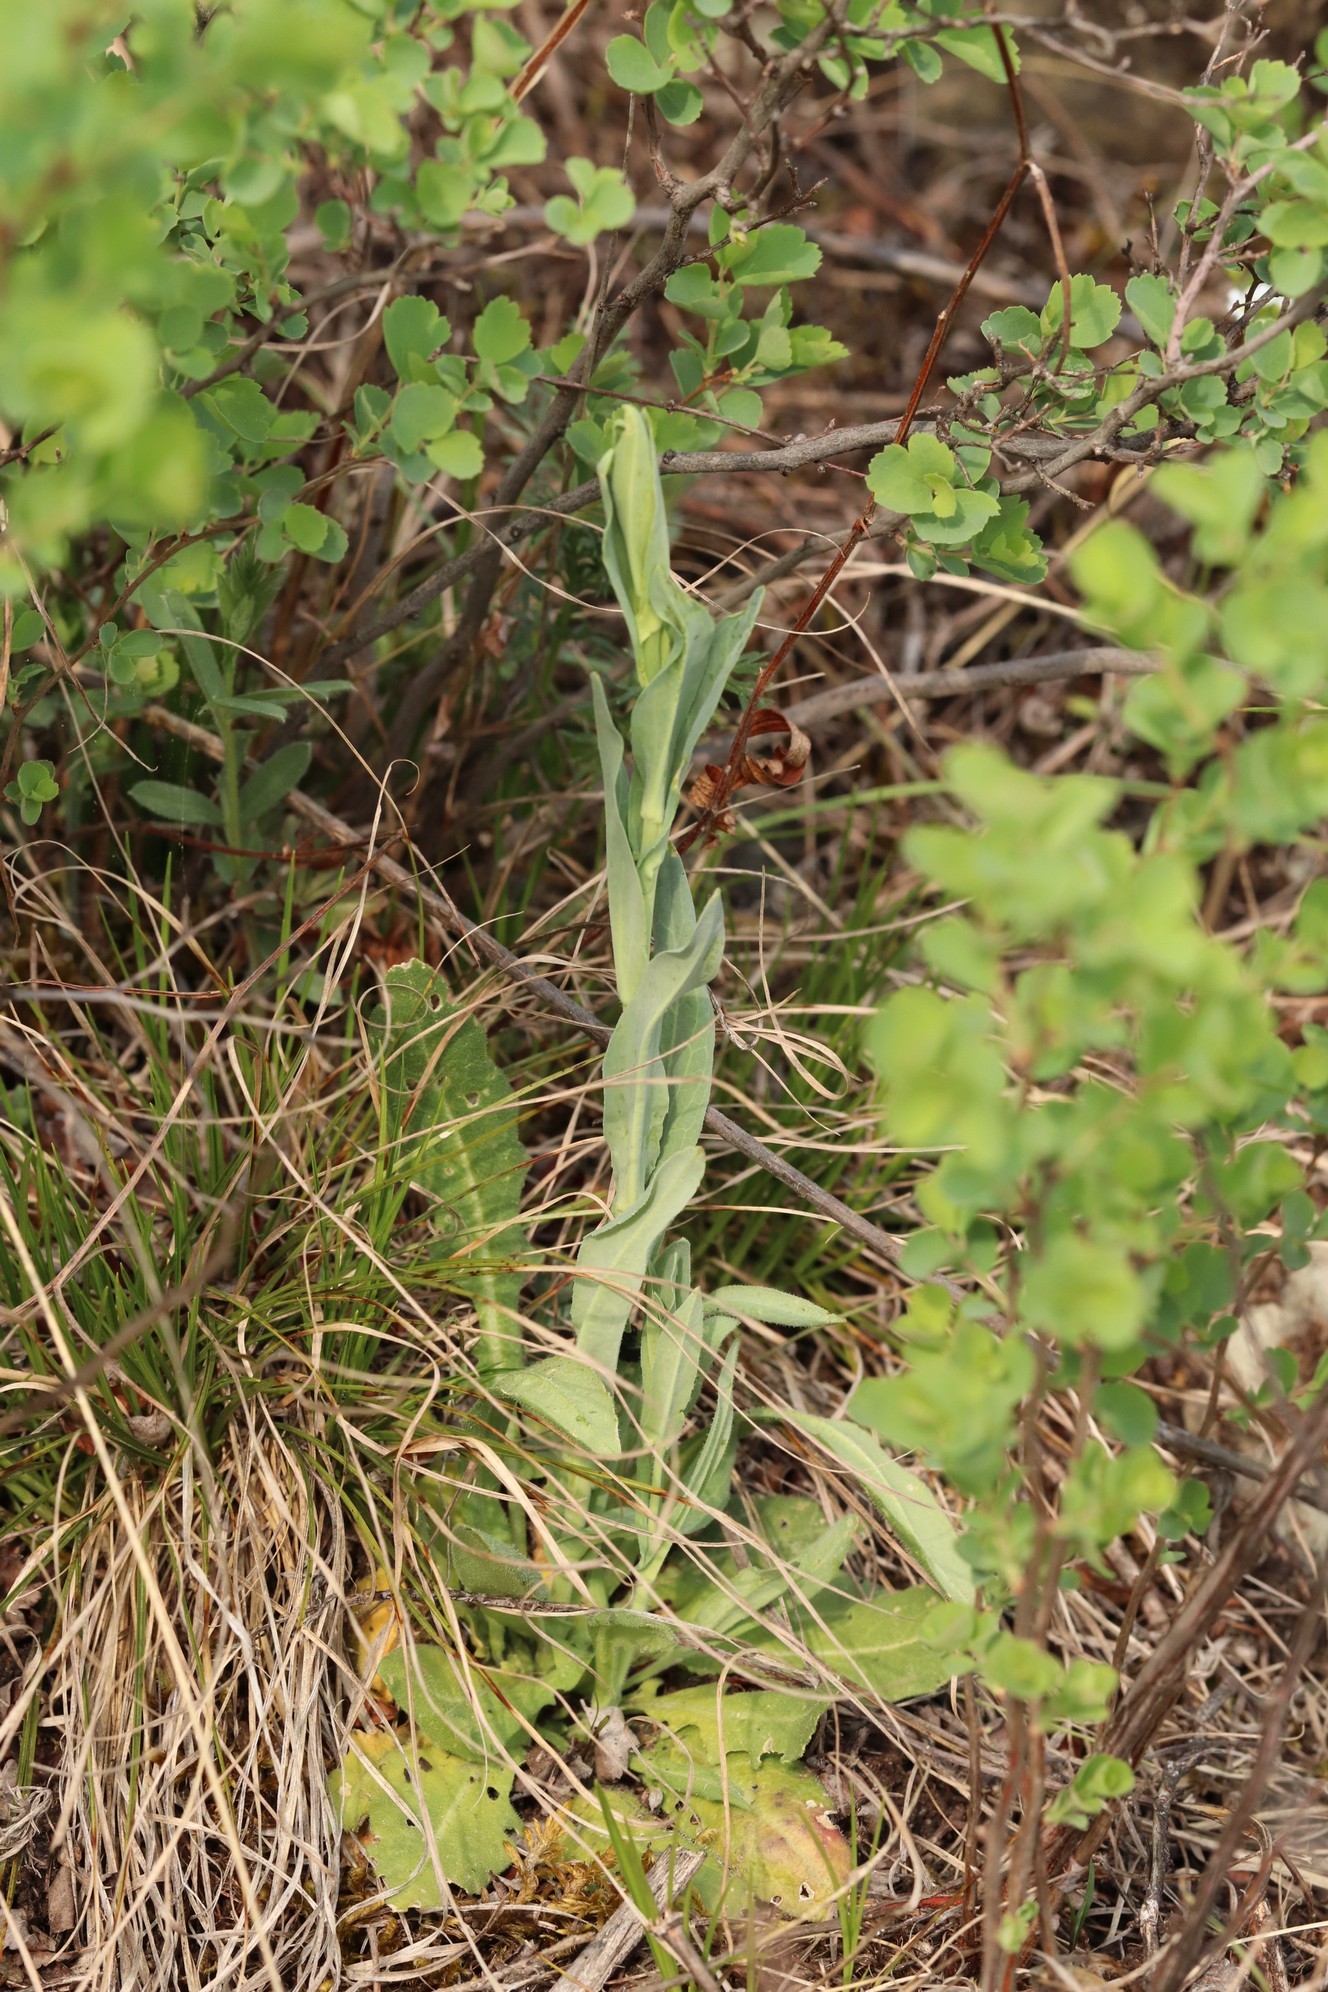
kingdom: Plantae
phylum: Tracheophyta
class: Magnoliopsida
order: Brassicales
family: Brassicaceae
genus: Turritis
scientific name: Turritis glabra
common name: Tower rockcress
